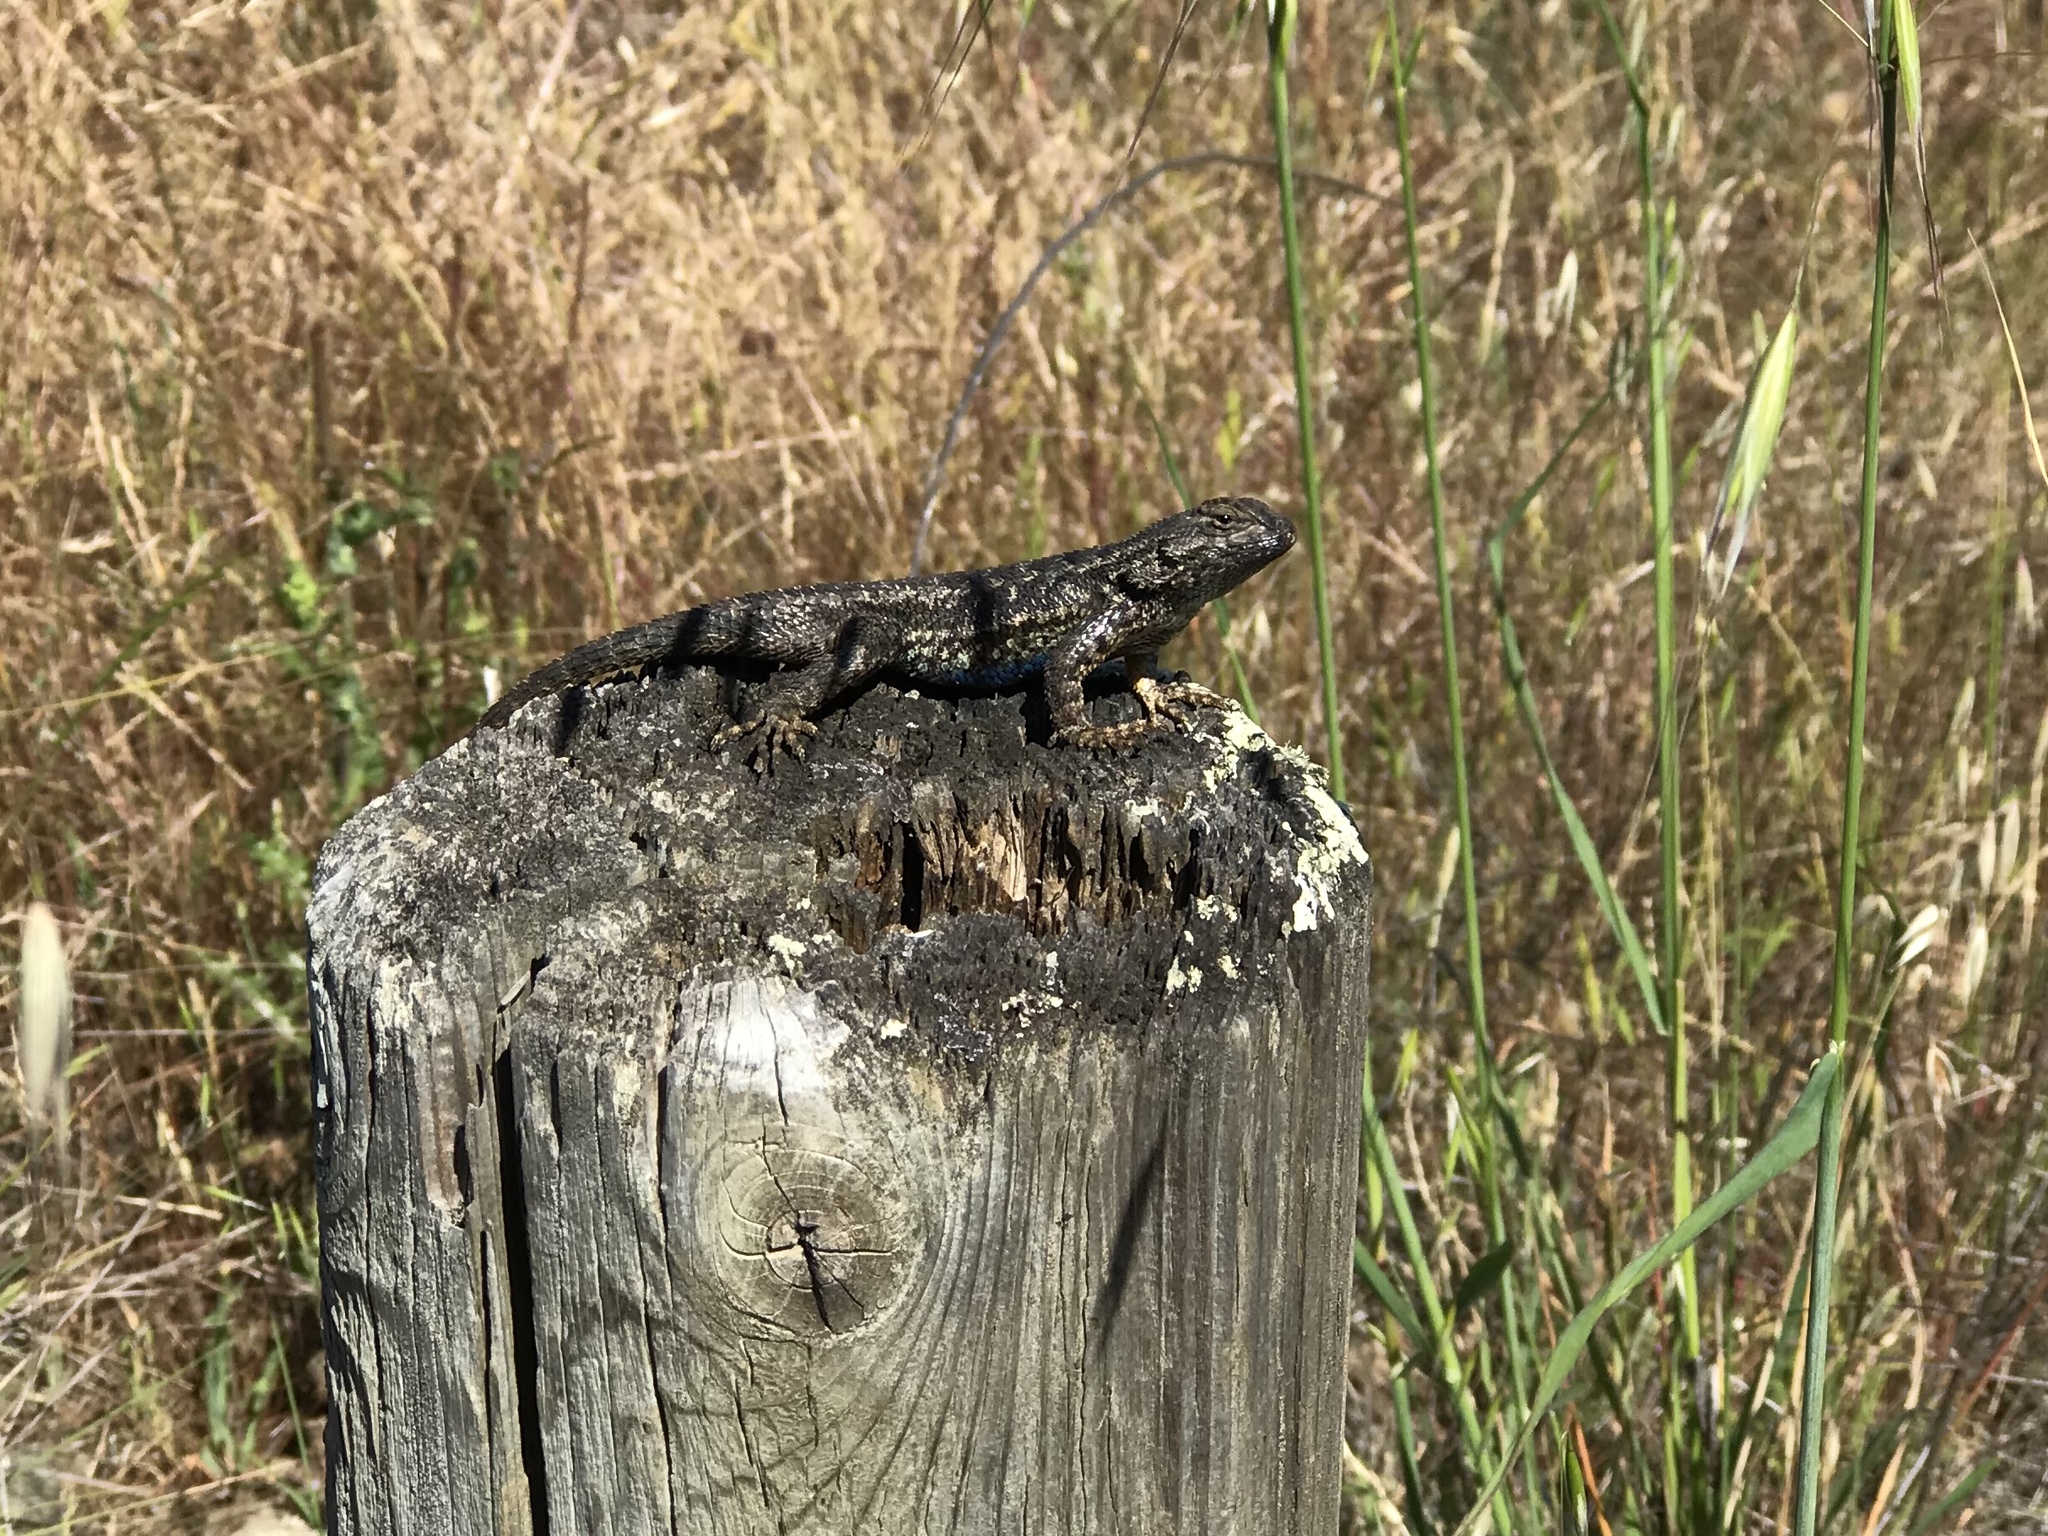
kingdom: Animalia
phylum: Chordata
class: Squamata
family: Phrynosomatidae
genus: Sceloporus
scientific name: Sceloporus occidentalis
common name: Western fence lizard
